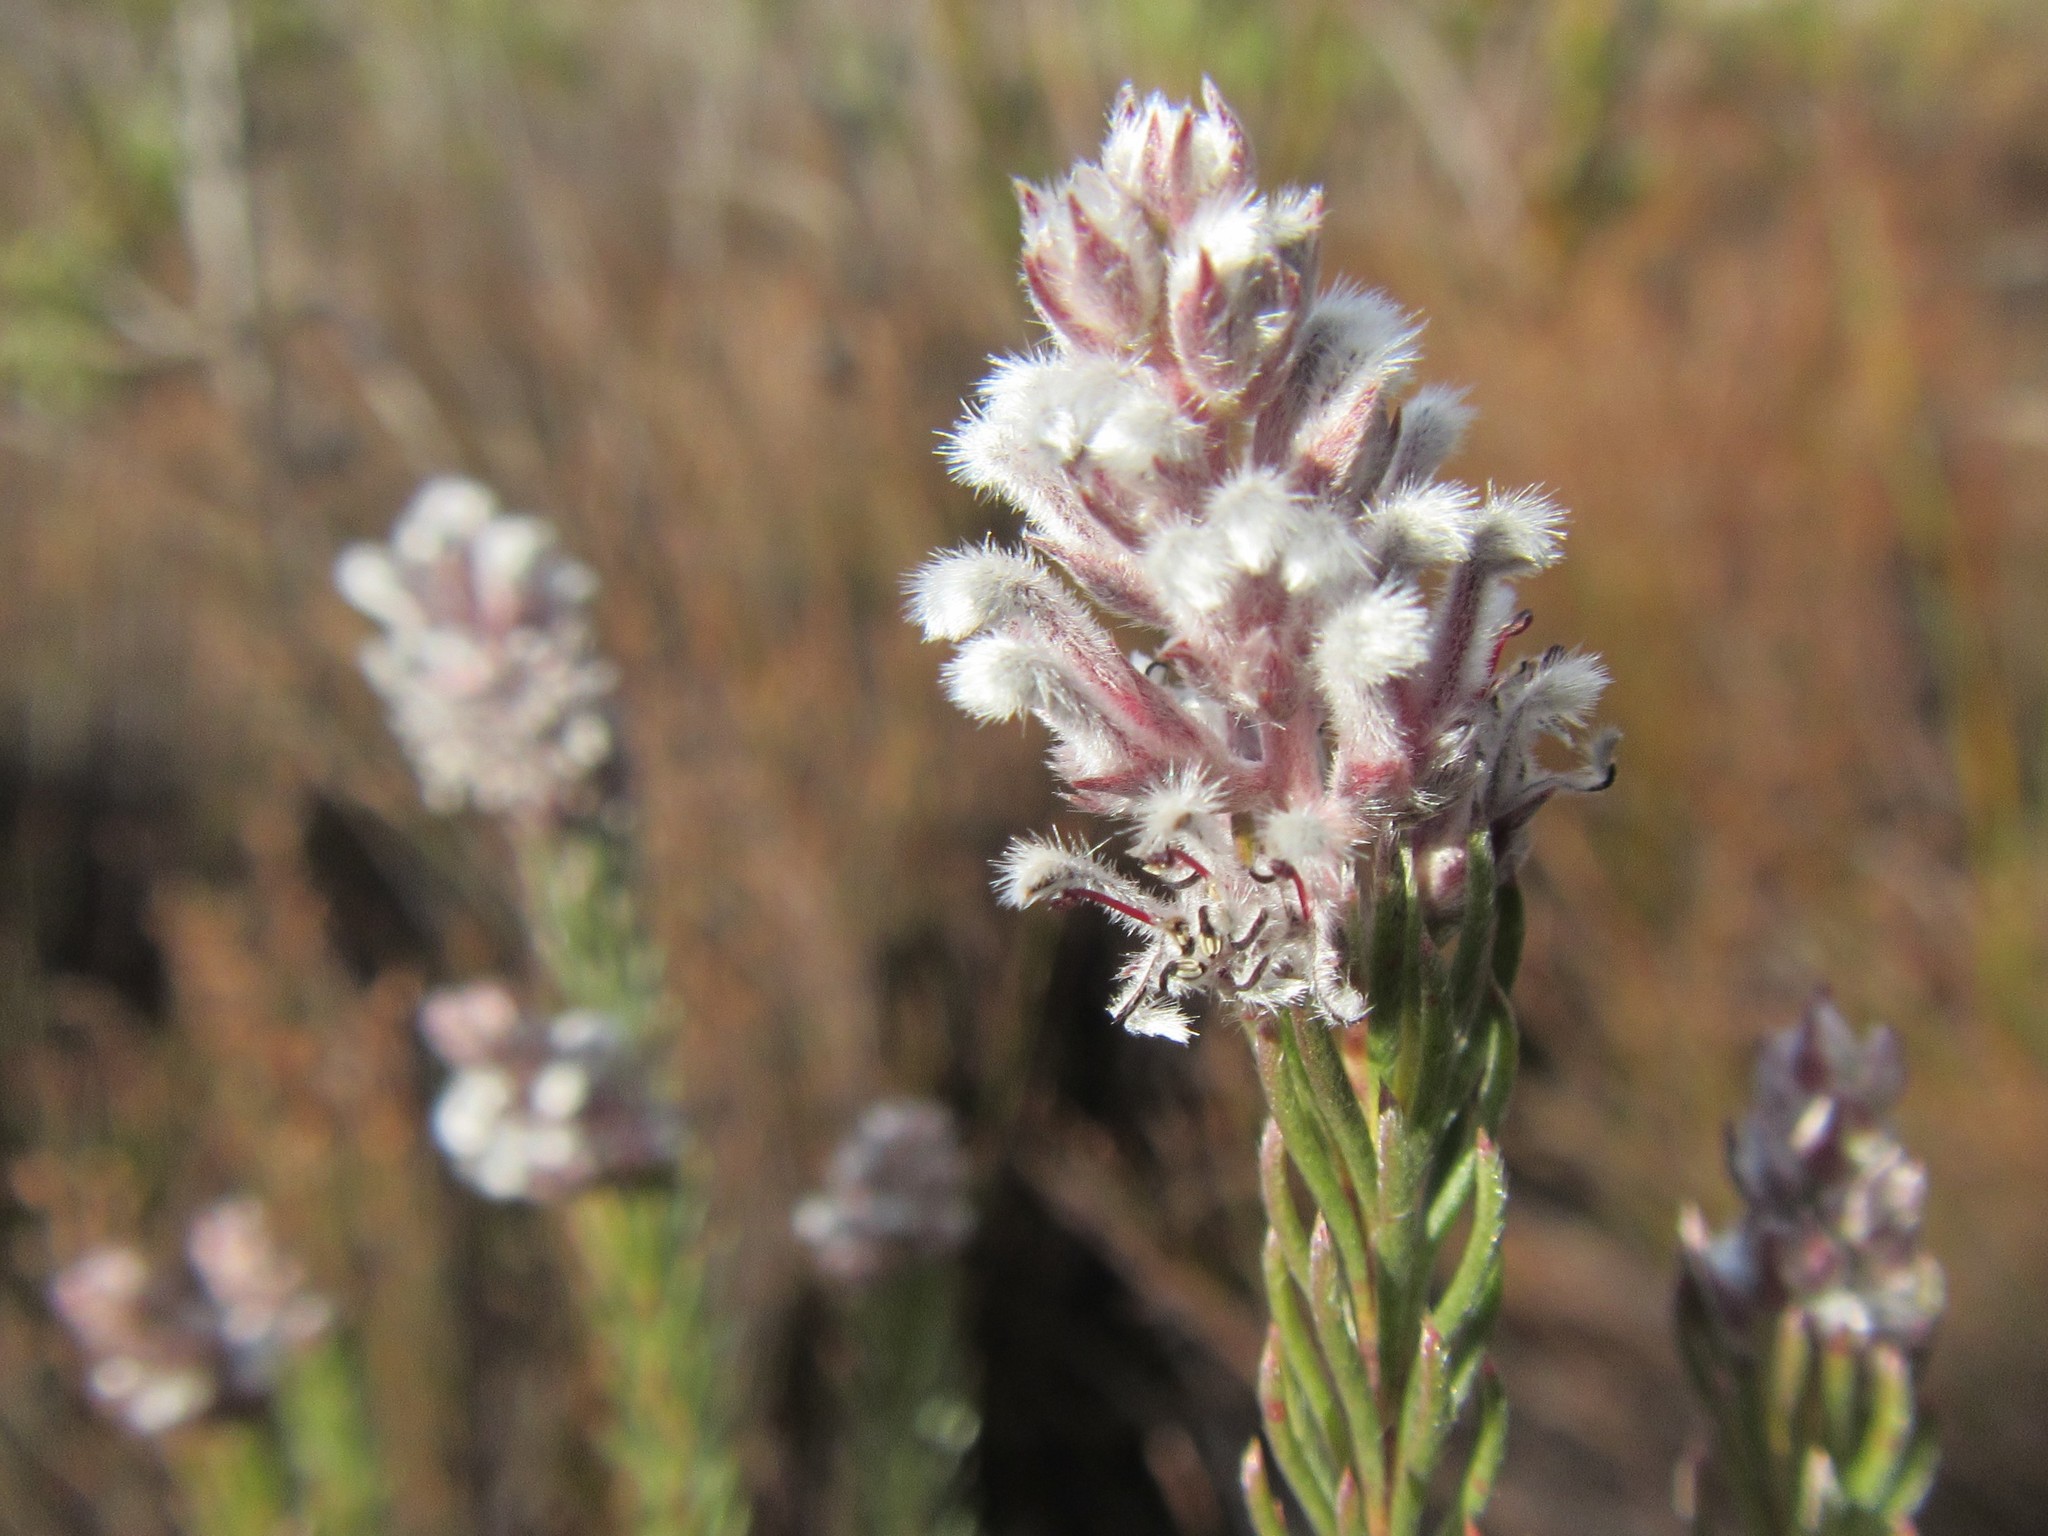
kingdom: Plantae
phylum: Tracheophyta
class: Magnoliopsida
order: Proteales
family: Proteaceae
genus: Spatalla
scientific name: Spatalla argentea
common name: Silver-leaf spoon
